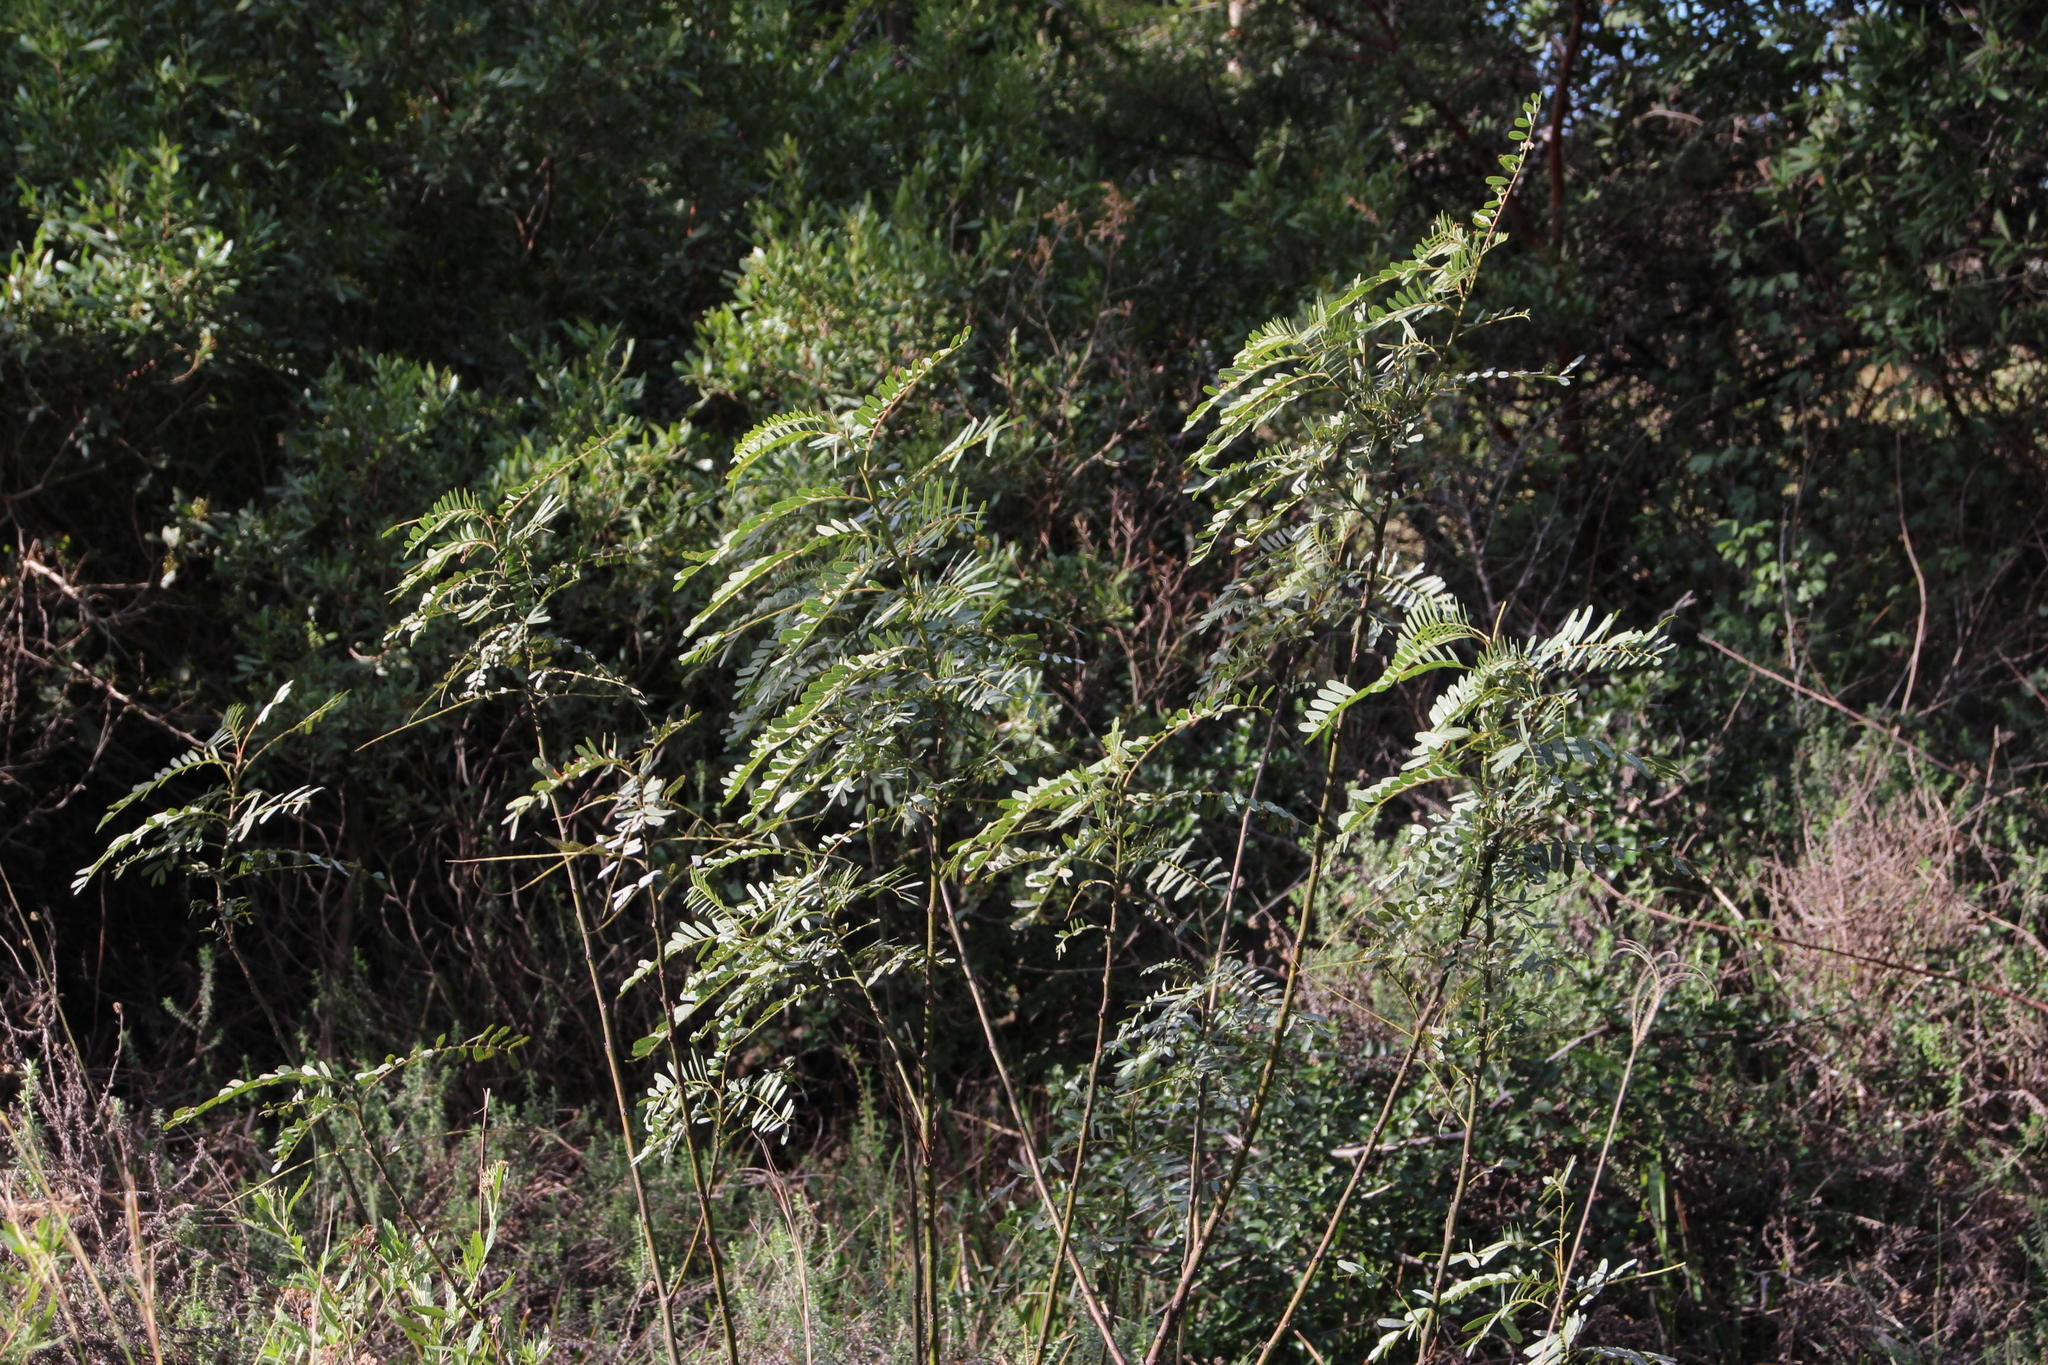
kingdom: Plantae
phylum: Tracheophyta
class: Magnoliopsida
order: Fabales
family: Fabaceae
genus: Sesbania
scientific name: Sesbania punicea
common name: Rattlebox
